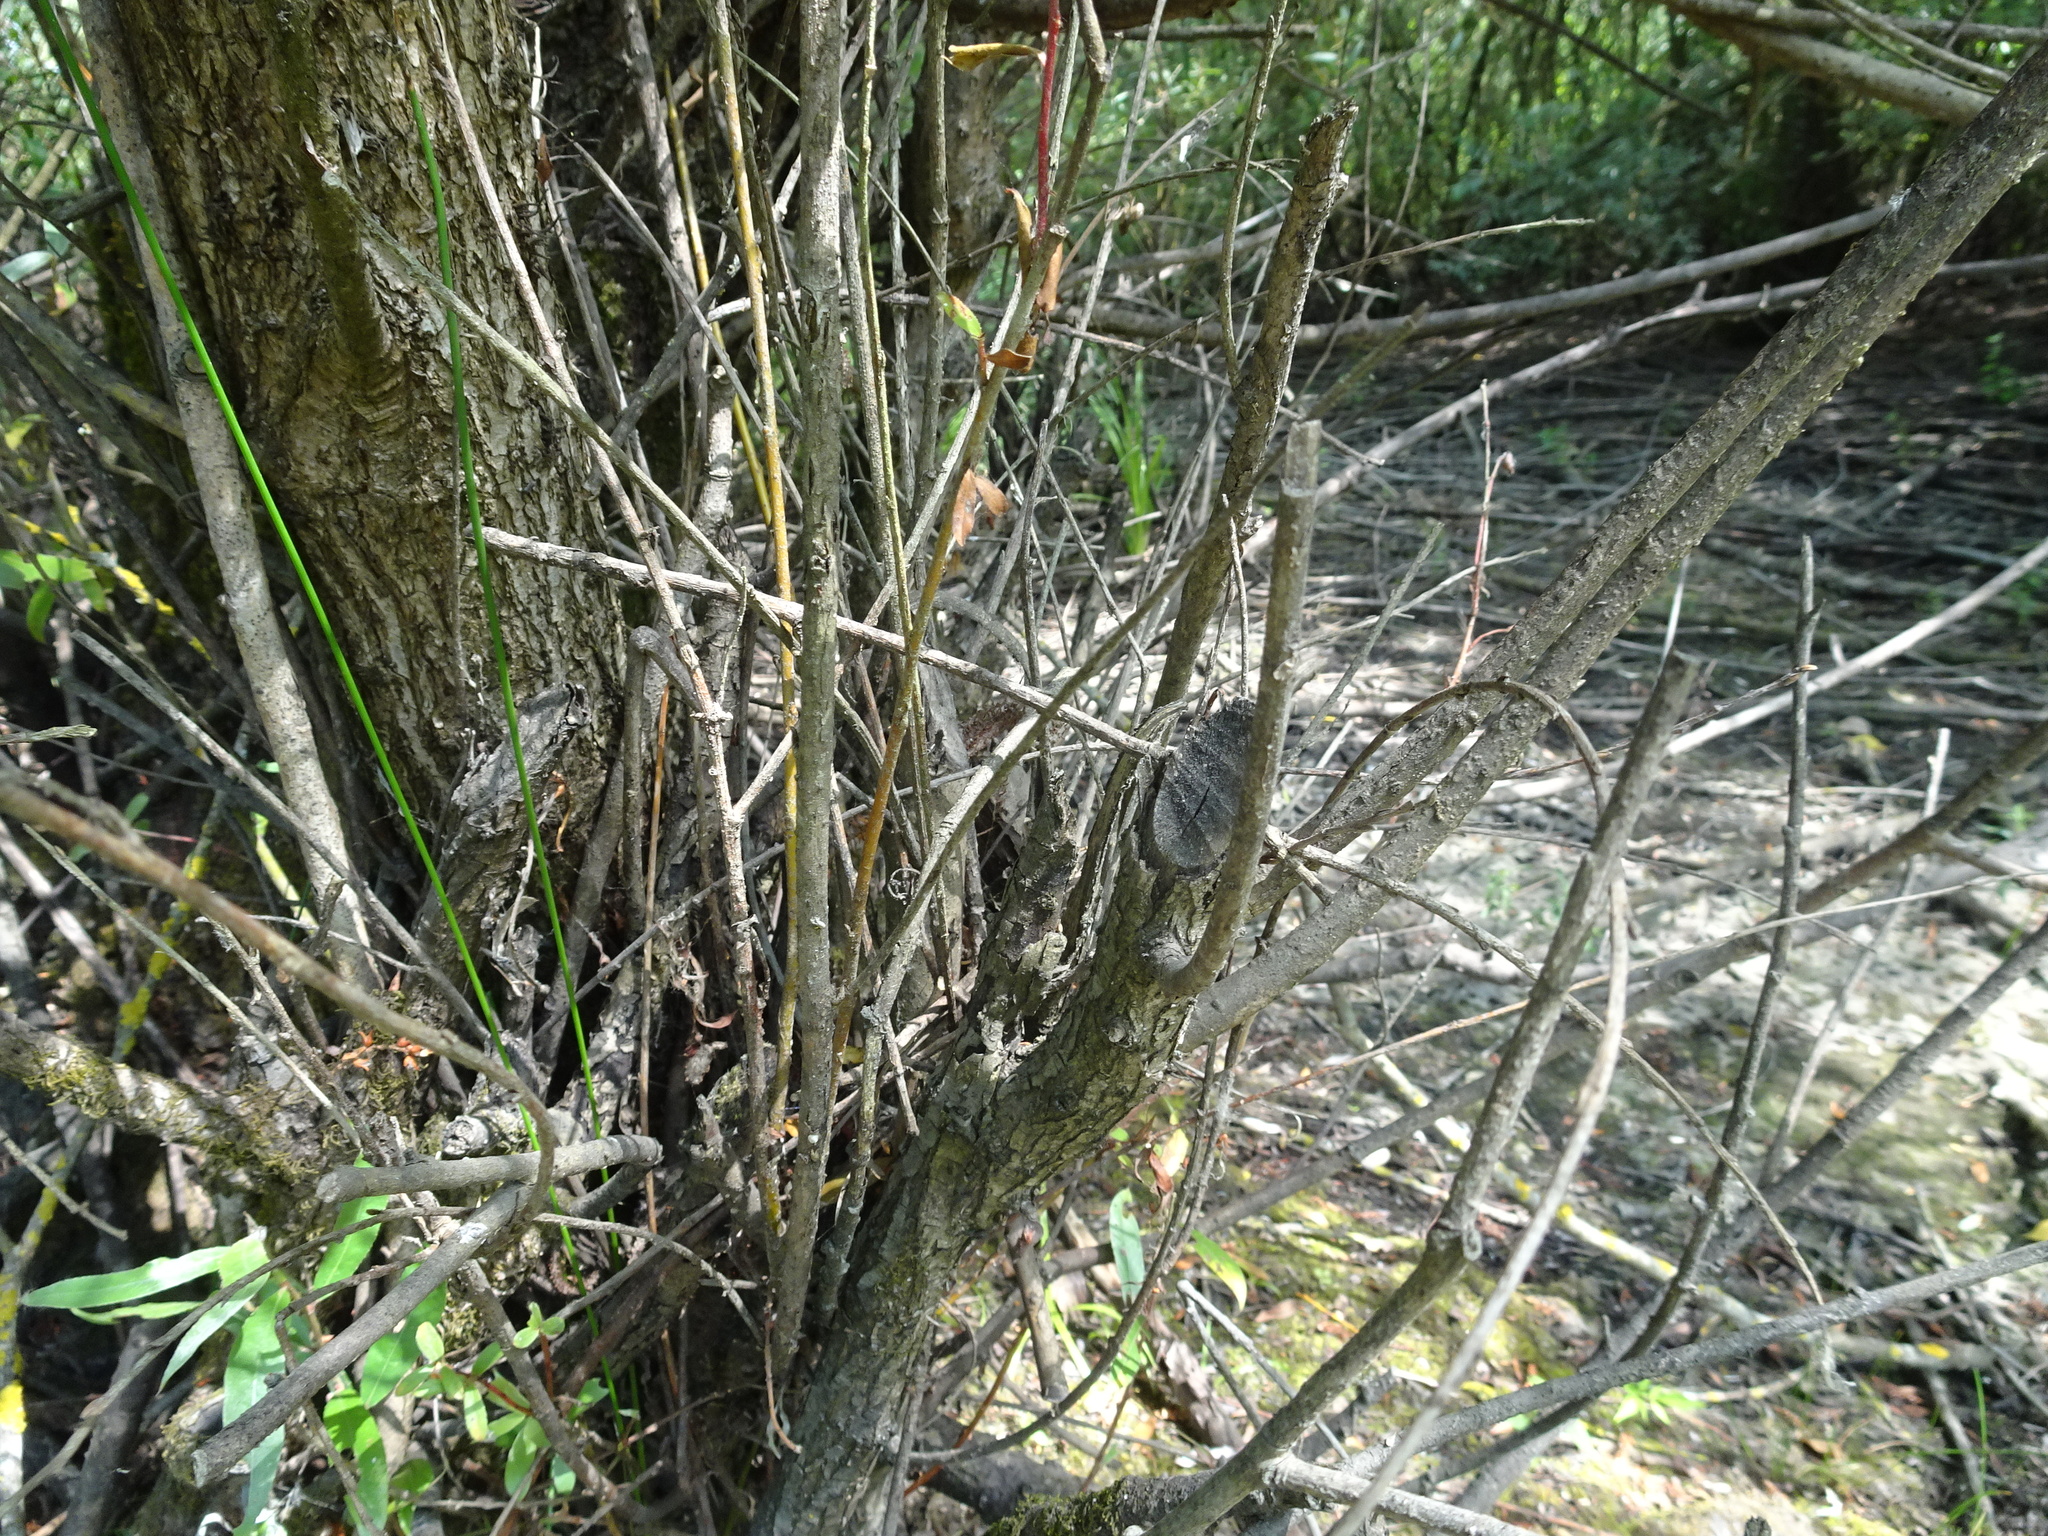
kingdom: Animalia
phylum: Chordata
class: Mammalia
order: Rodentia
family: Castoridae
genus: Castor
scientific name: Castor fiber
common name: Eurasian beaver
